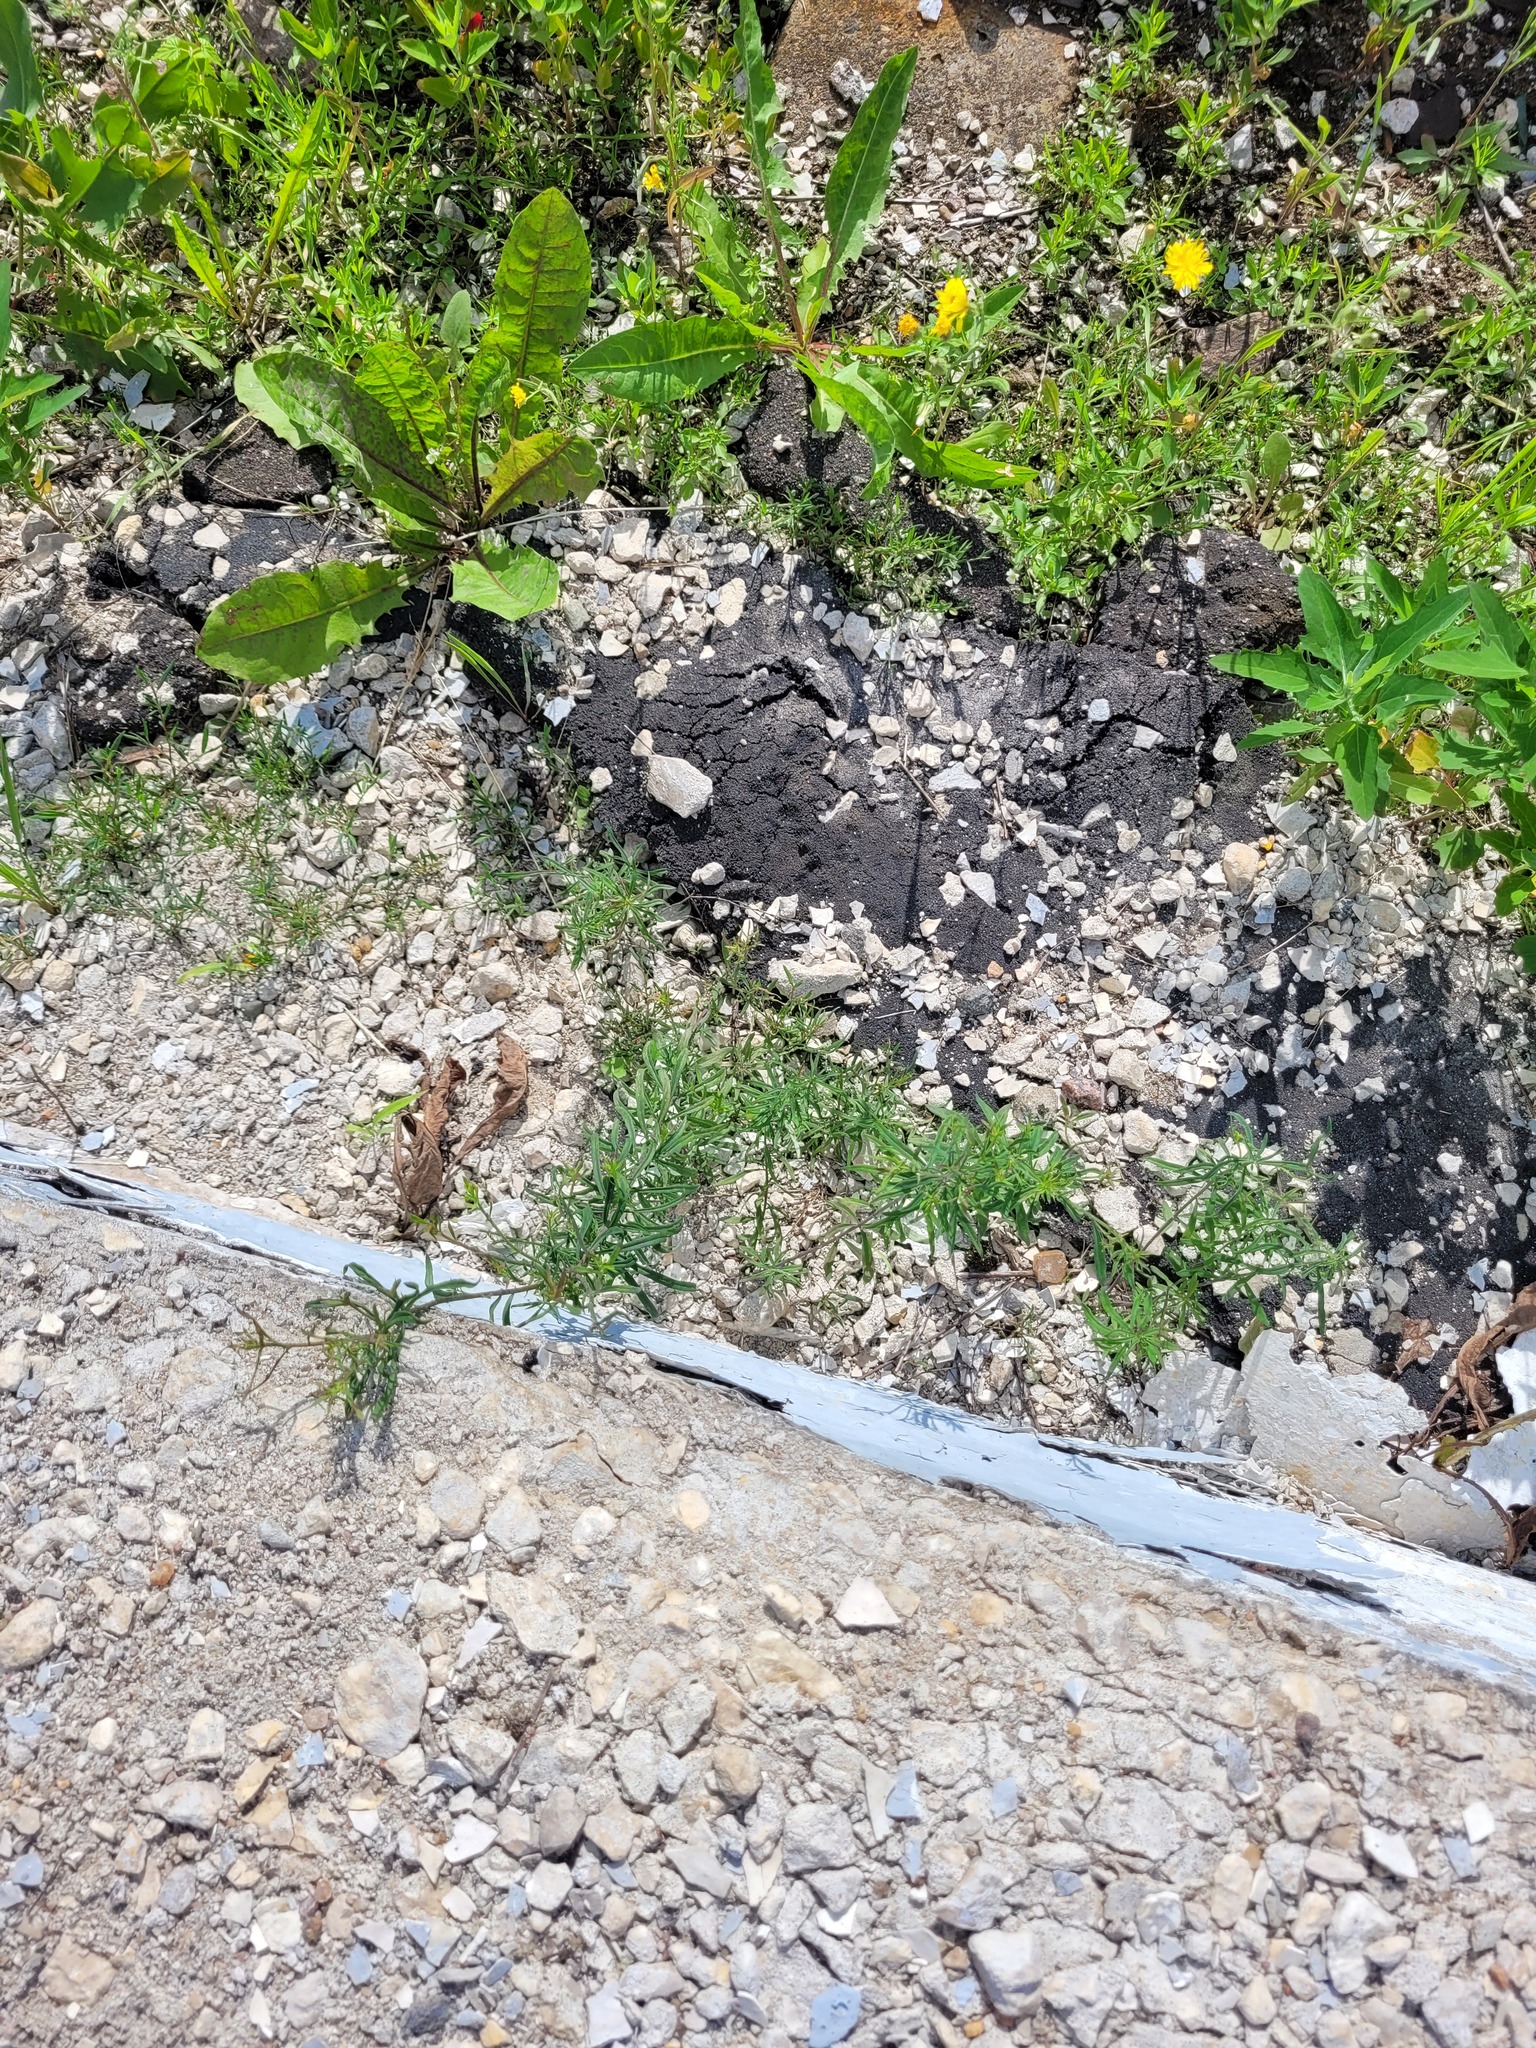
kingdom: Plantae
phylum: Tracheophyta
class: Magnoliopsida
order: Lamiales
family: Plantaginaceae
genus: Linaria
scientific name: Linaria vulgaris
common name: Butter and eggs
